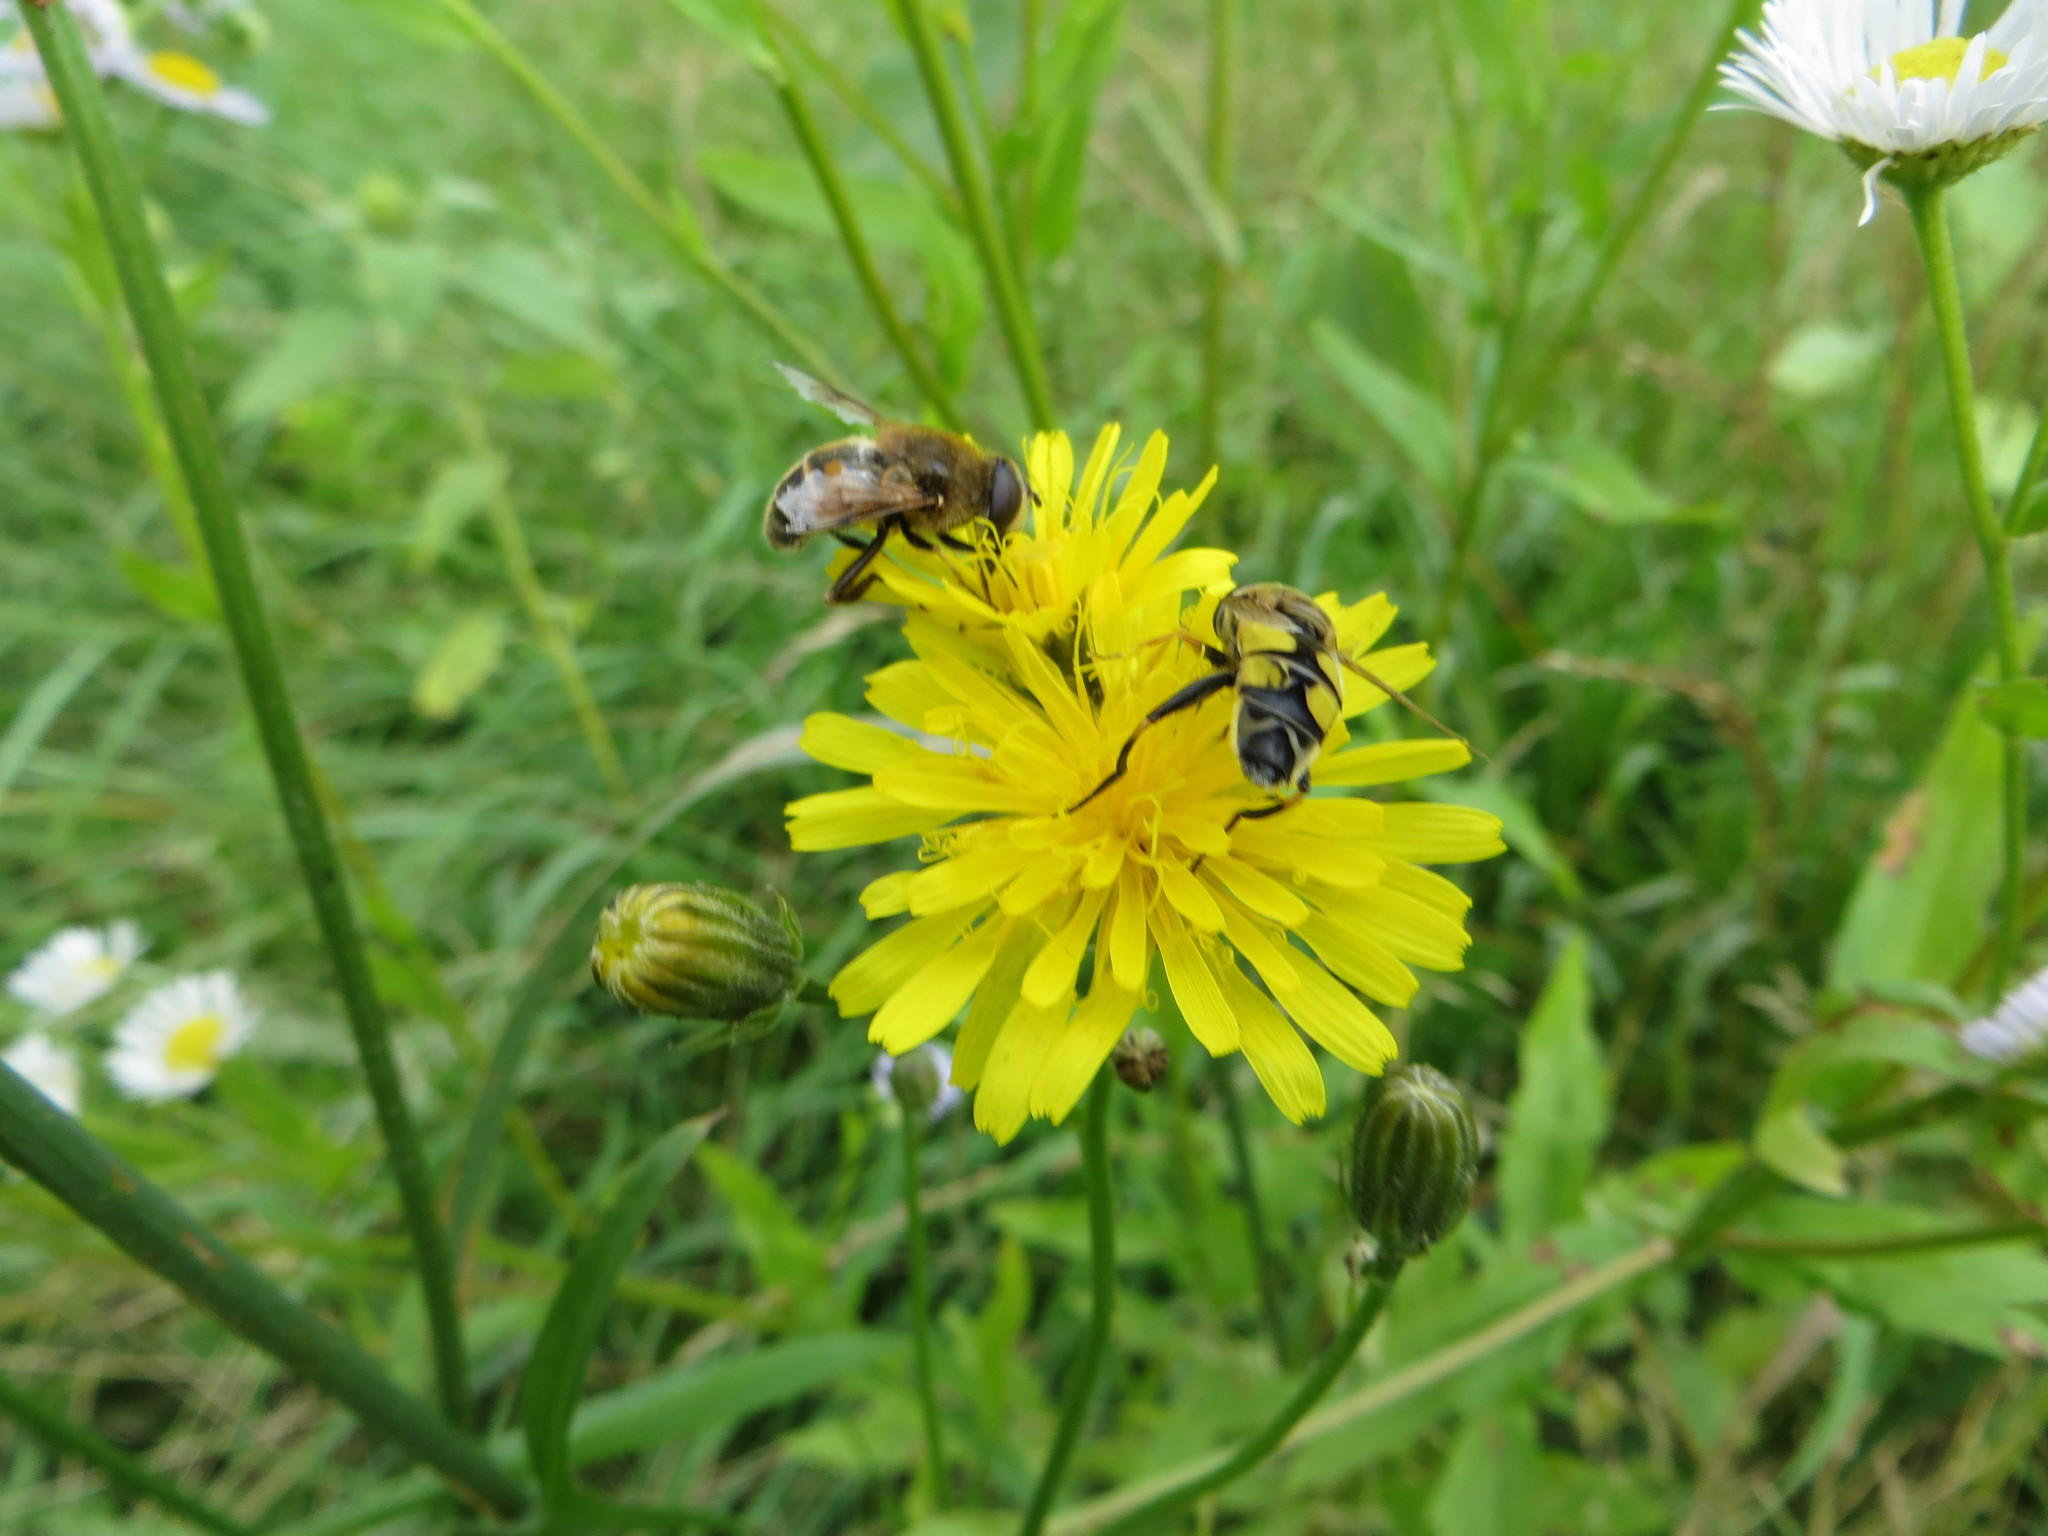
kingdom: Animalia
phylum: Arthropoda
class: Insecta
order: Diptera
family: Syrphidae
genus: Helophilus
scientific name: Helophilus trivittatus
